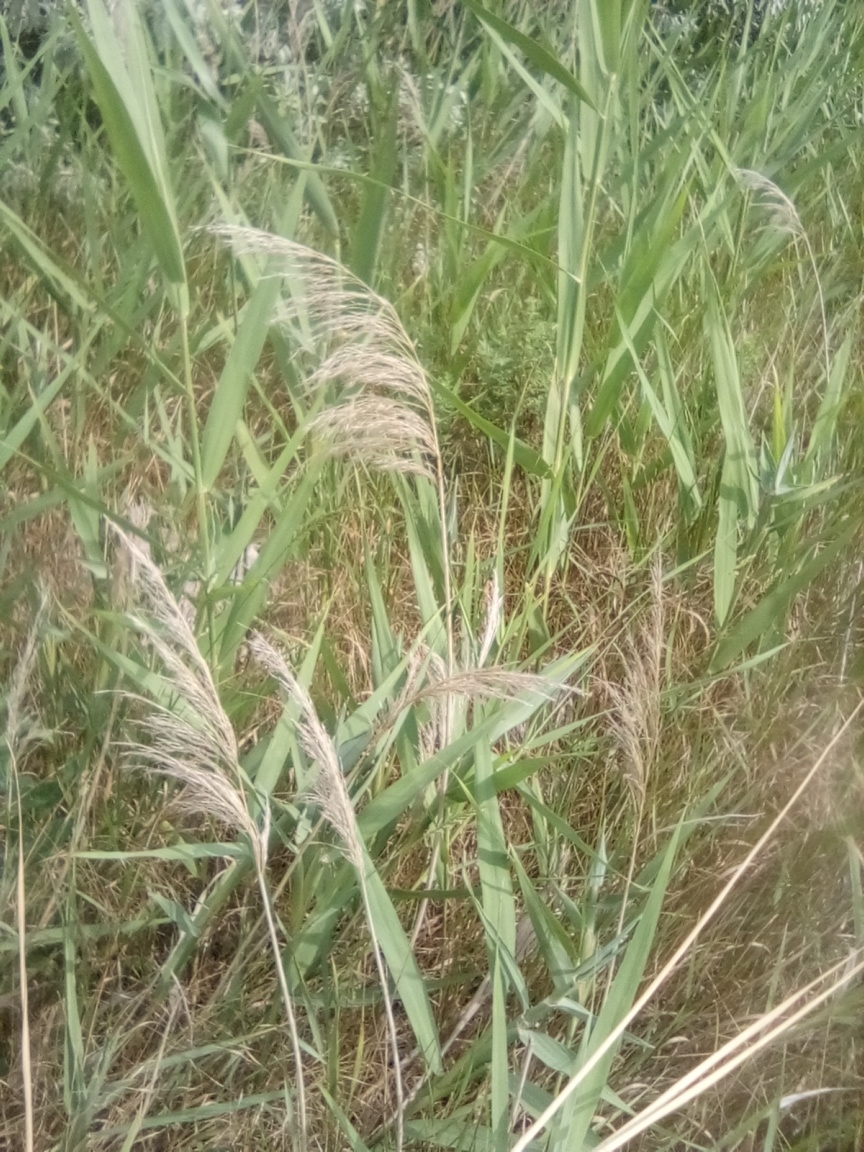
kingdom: Plantae
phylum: Tracheophyta
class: Liliopsida
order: Poales
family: Poaceae
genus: Phragmites
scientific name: Phragmites australis
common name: Common reed
